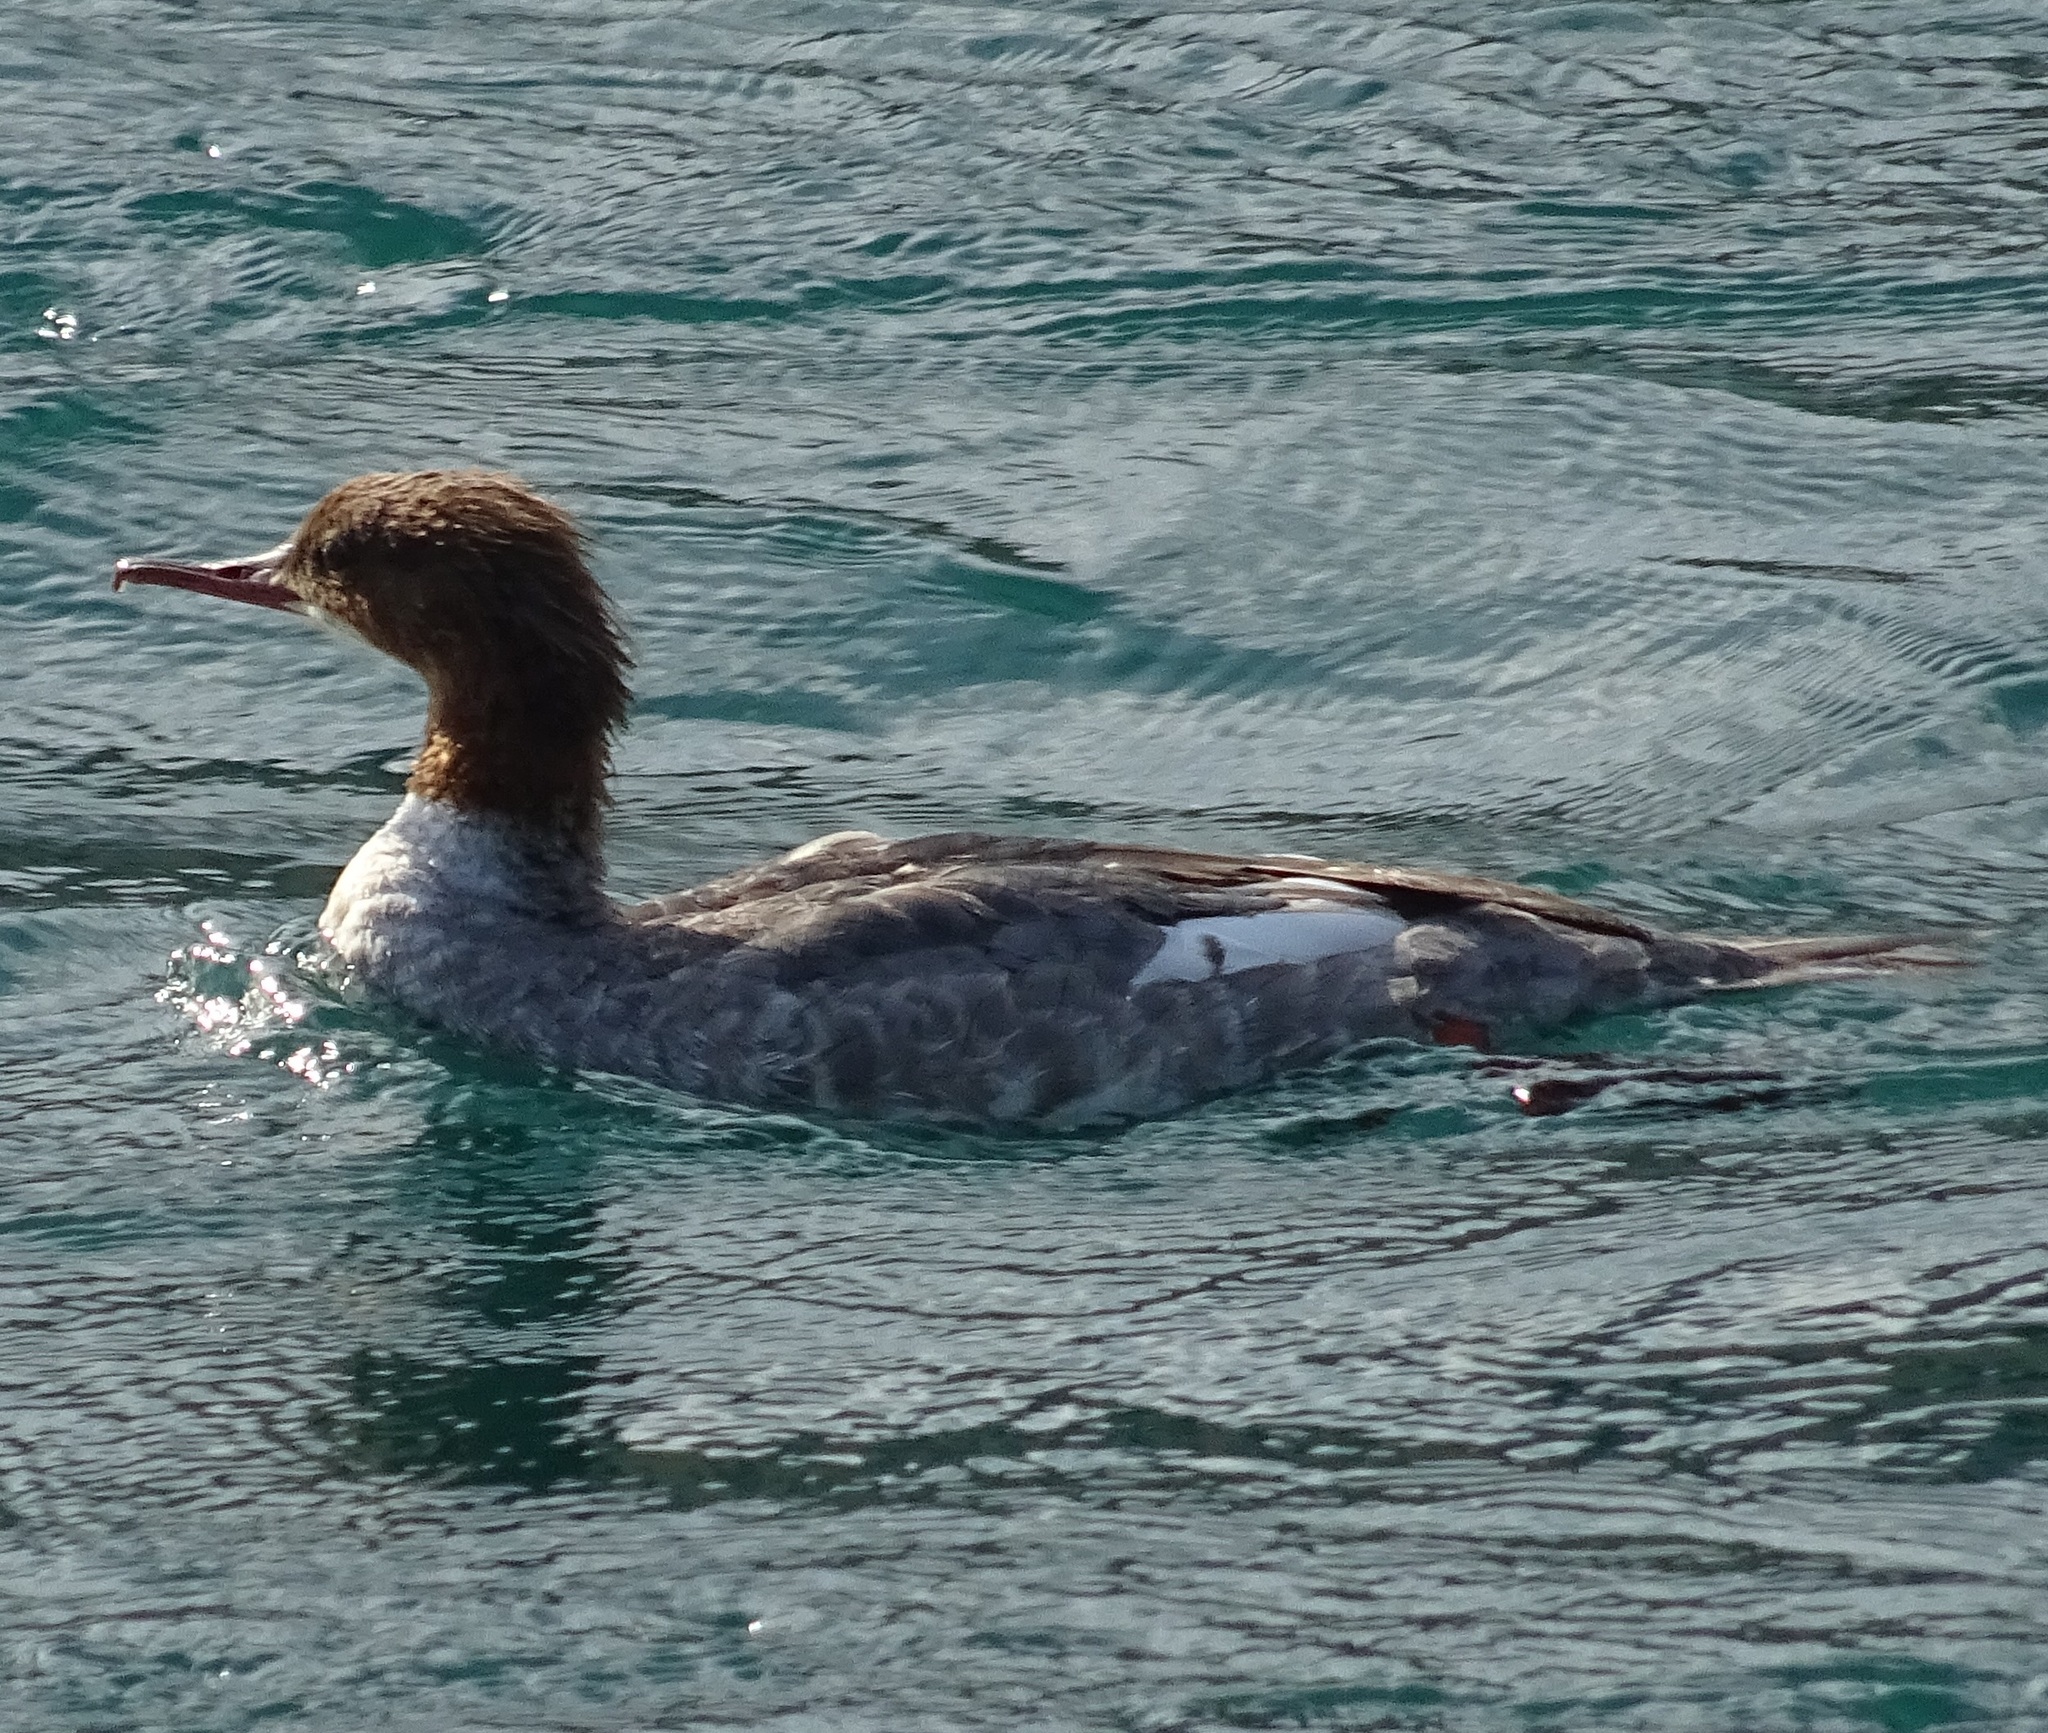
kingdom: Animalia
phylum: Chordata
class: Aves
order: Anseriformes
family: Anatidae
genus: Mergus
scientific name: Mergus merganser
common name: Common merganser
